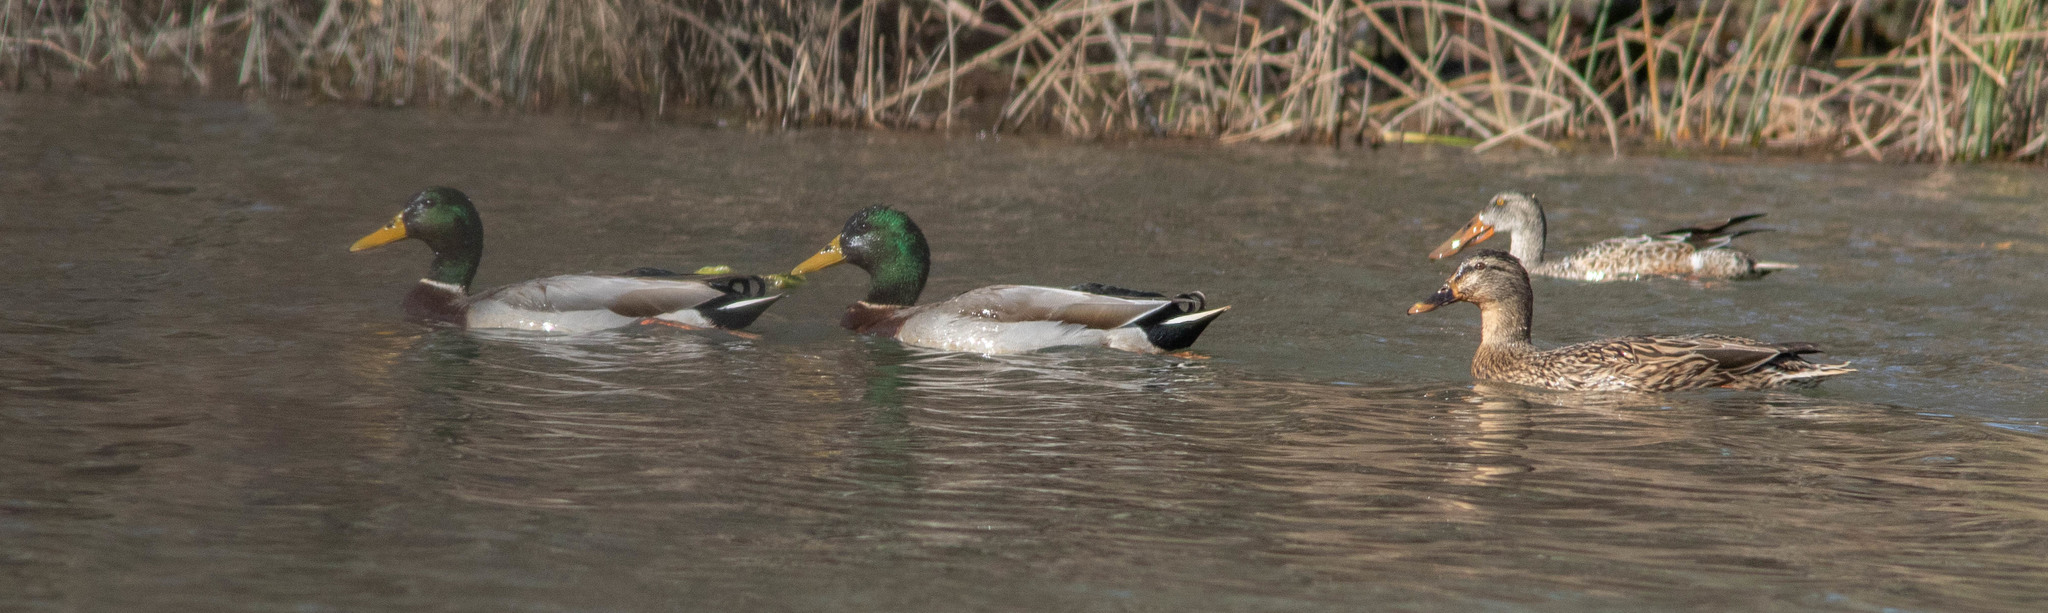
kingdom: Animalia
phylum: Chordata
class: Aves
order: Anseriformes
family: Anatidae
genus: Anas
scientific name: Anas platyrhynchos
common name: Mallard
